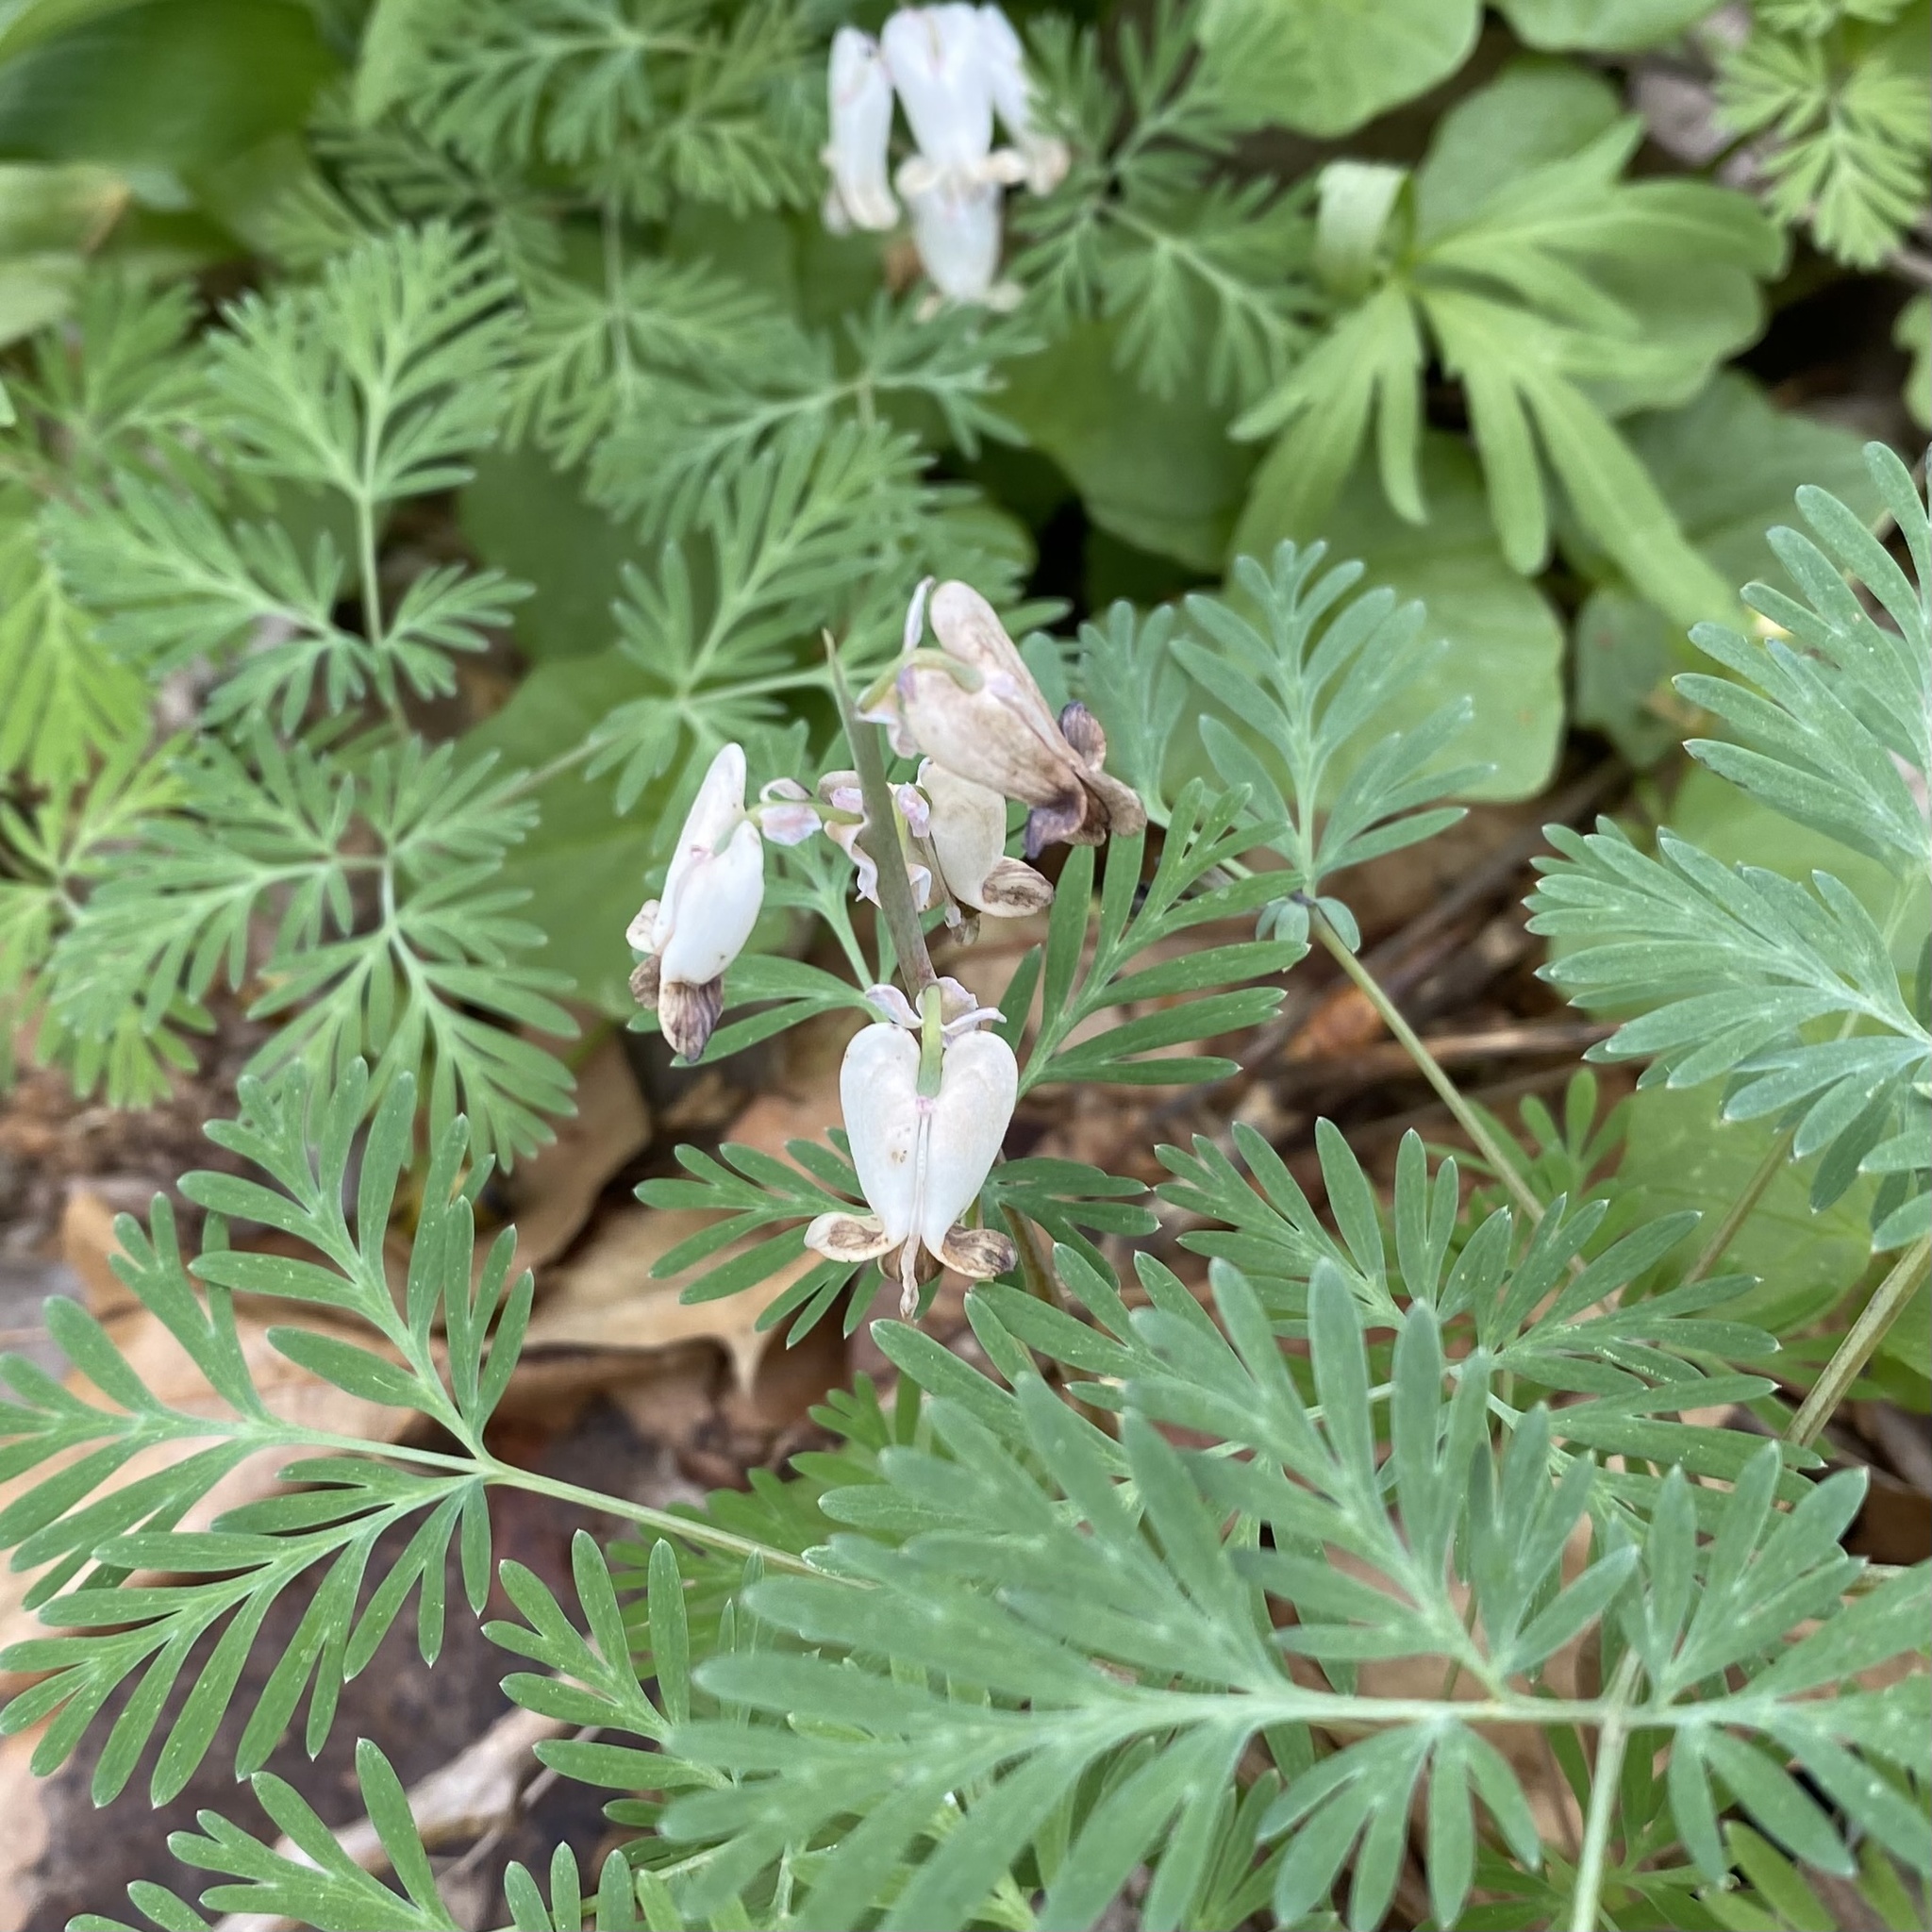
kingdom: Plantae
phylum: Tracheophyta
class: Magnoliopsida
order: Ranunculales
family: Papaveraceae
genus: Dicentra
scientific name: Dicentra canadensis
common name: Squirrel-corn
